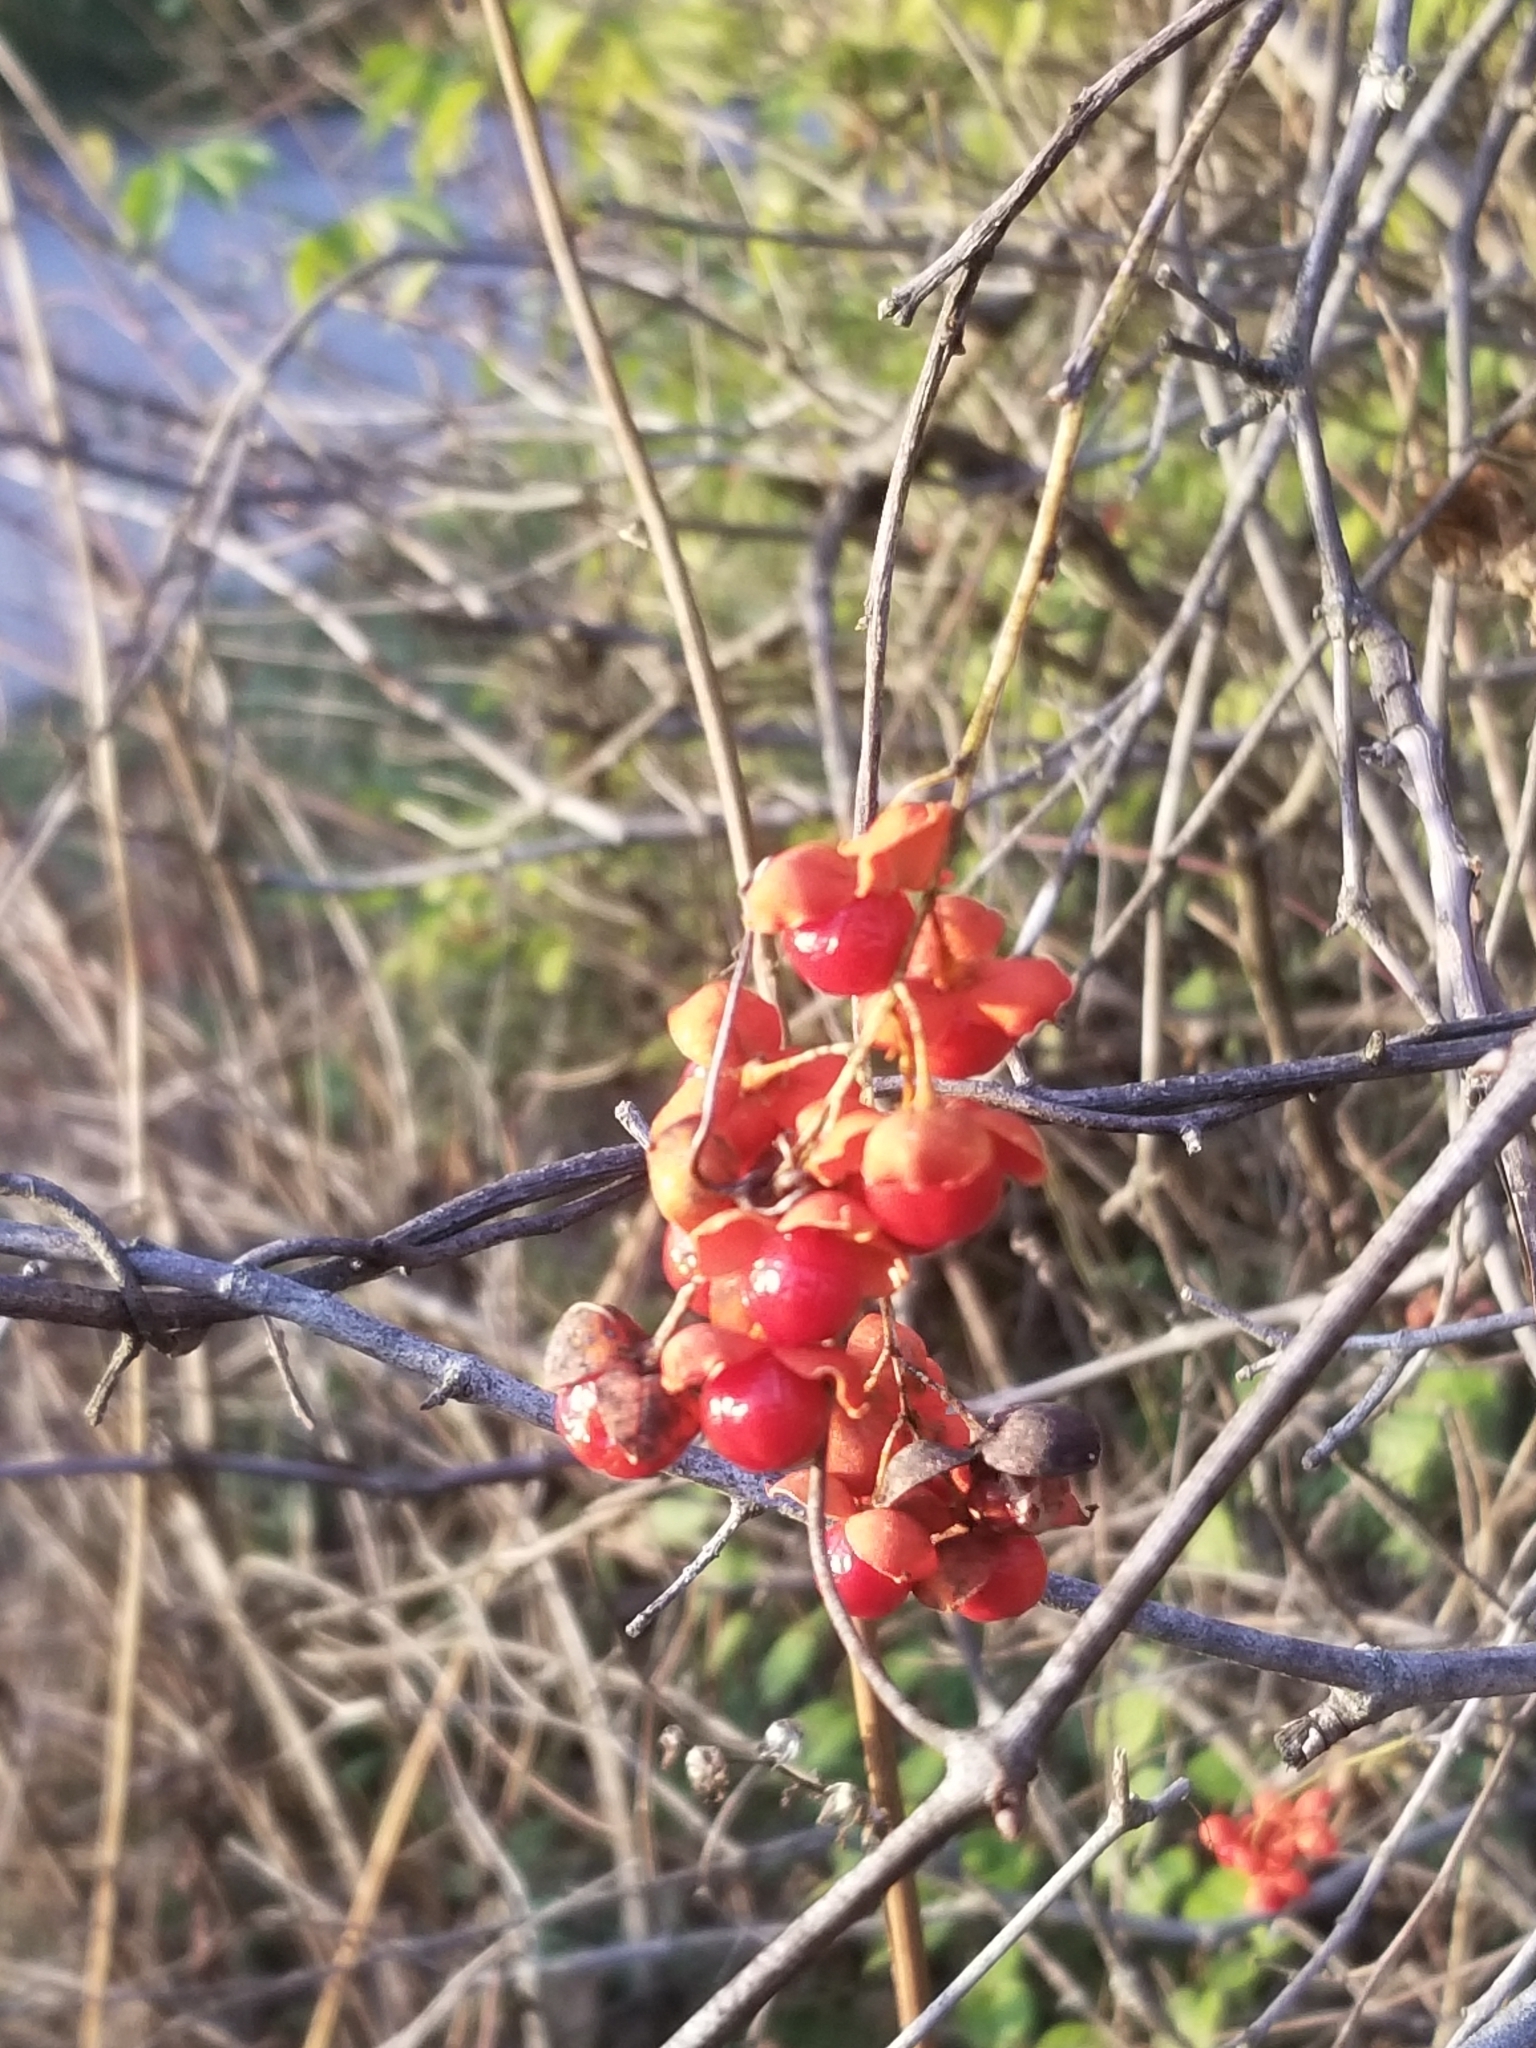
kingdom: Plantae
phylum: Tracheophyta
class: Magnoliopsida
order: Celastrales
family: Celastraceae
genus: Celastrus
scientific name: Celastrus scandens
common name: American bittersweet
